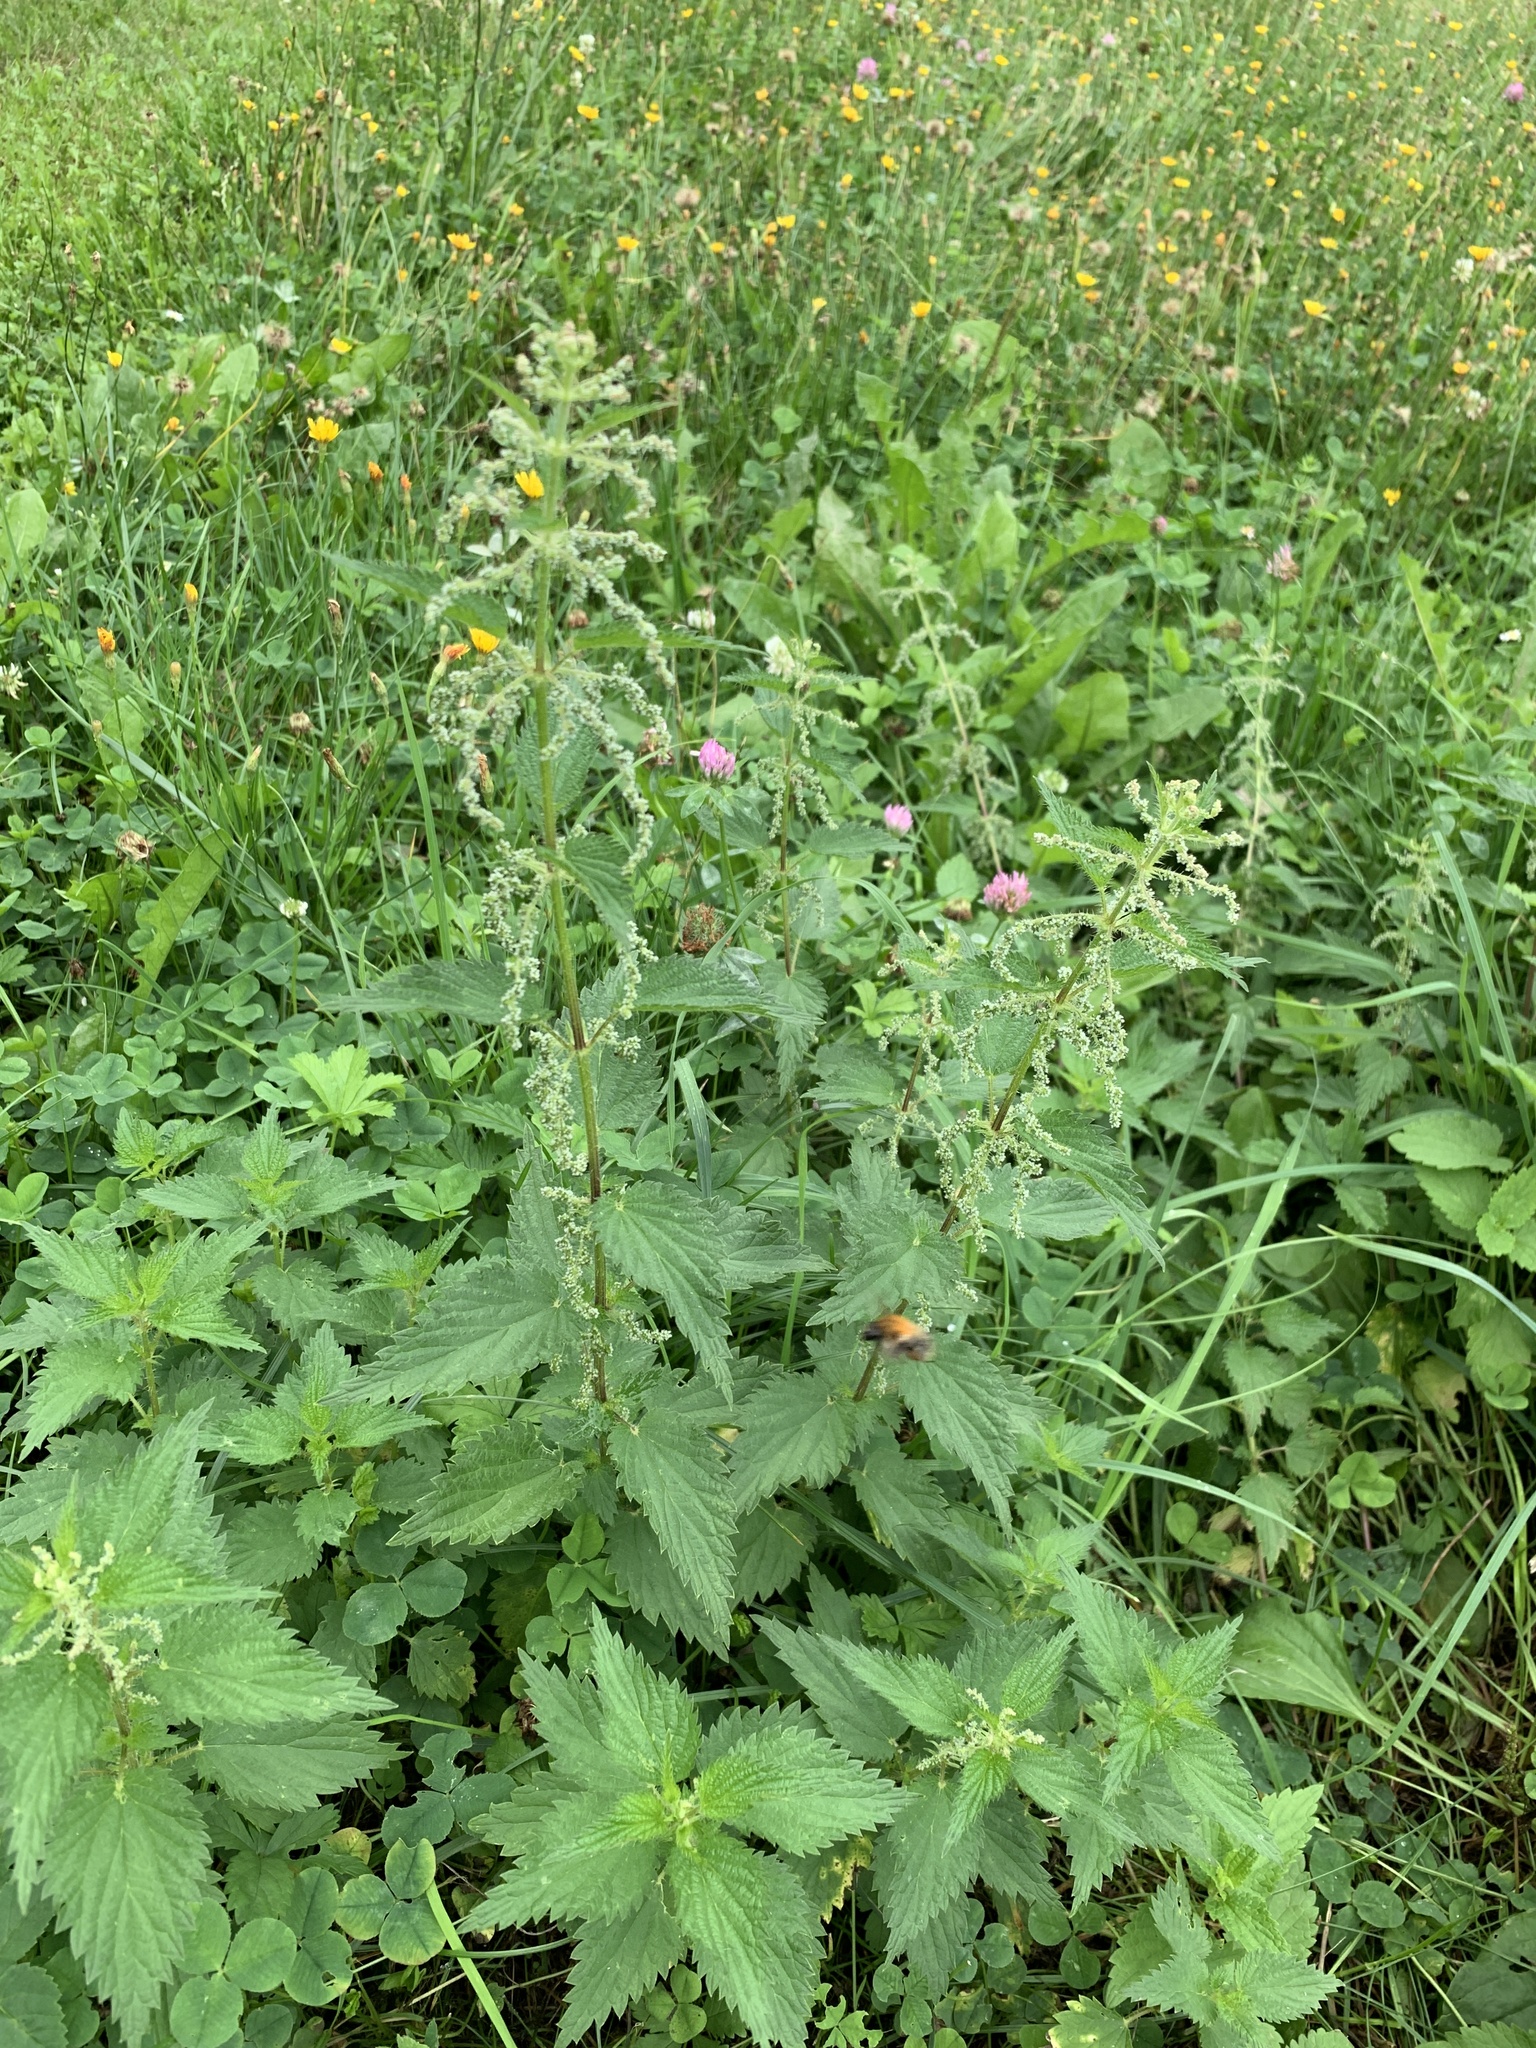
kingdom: Plantae
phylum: Tracheophyta
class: Magnoliopsida
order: Rosales
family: Urticaceae
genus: Urtica
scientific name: Urtica dioica
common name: Common nettle
